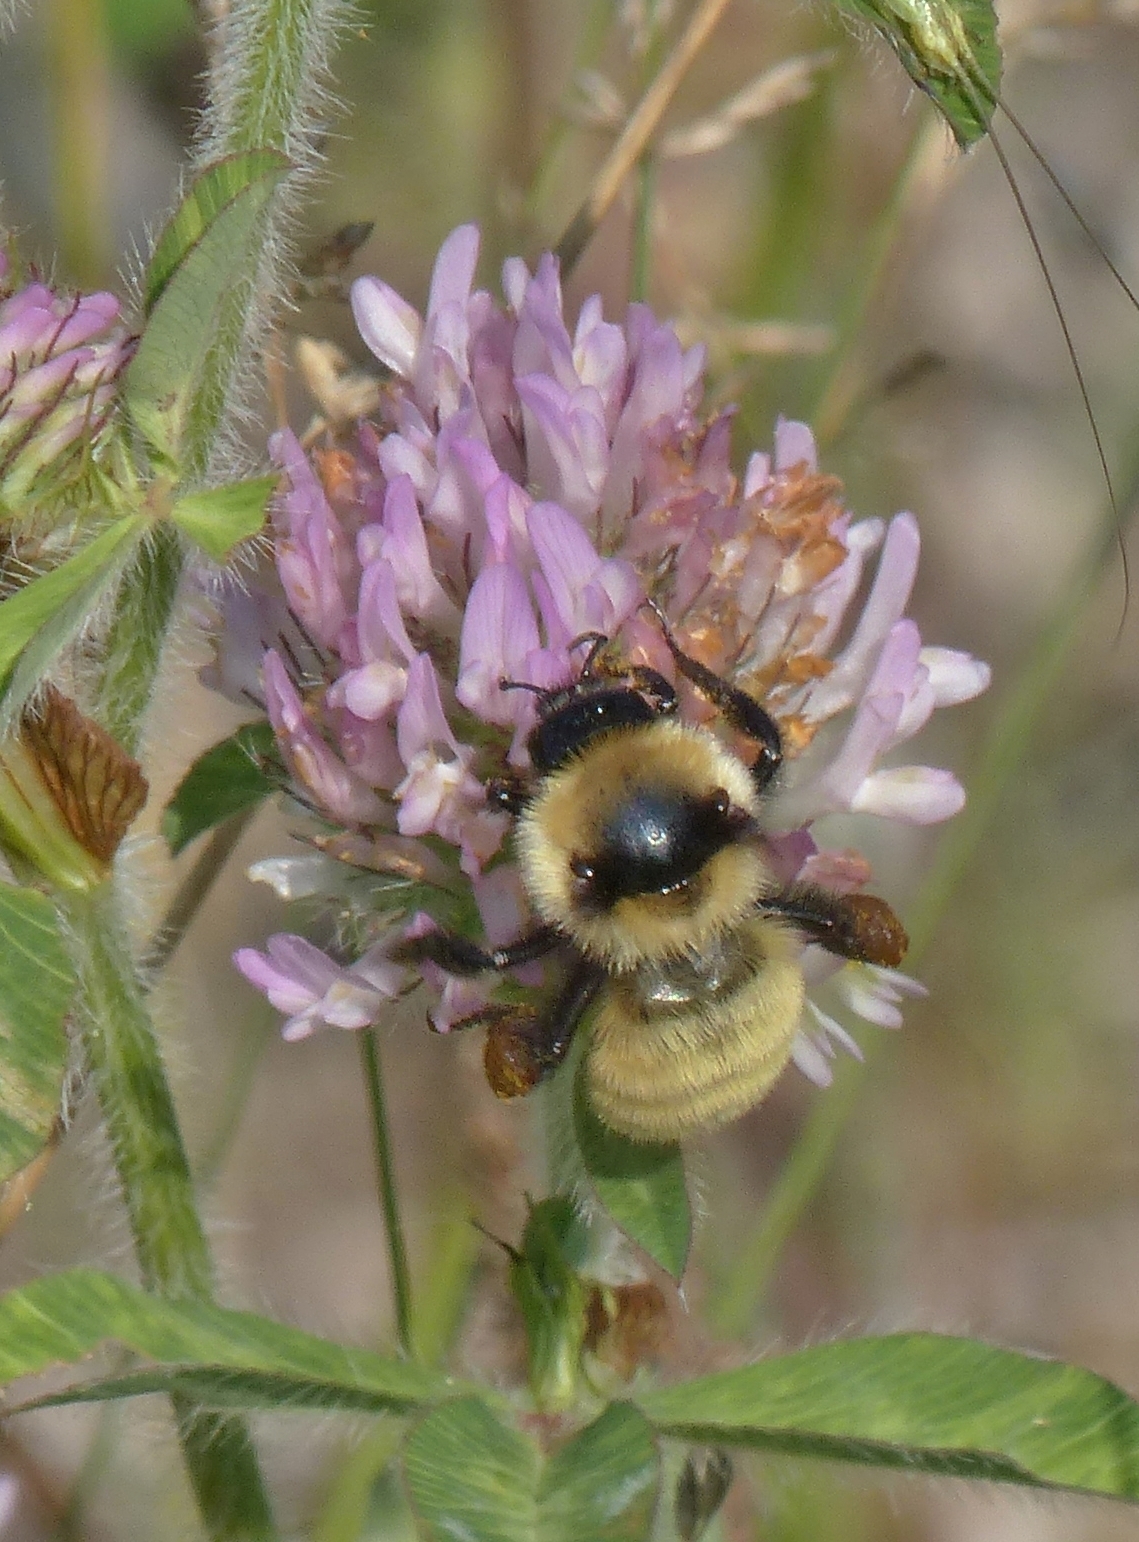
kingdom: Animalia
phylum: Arthropoda
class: Insecta
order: Hymenoptera
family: Apidae
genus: Bombus
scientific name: Bombus fervidus
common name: Yellow bumble bee
